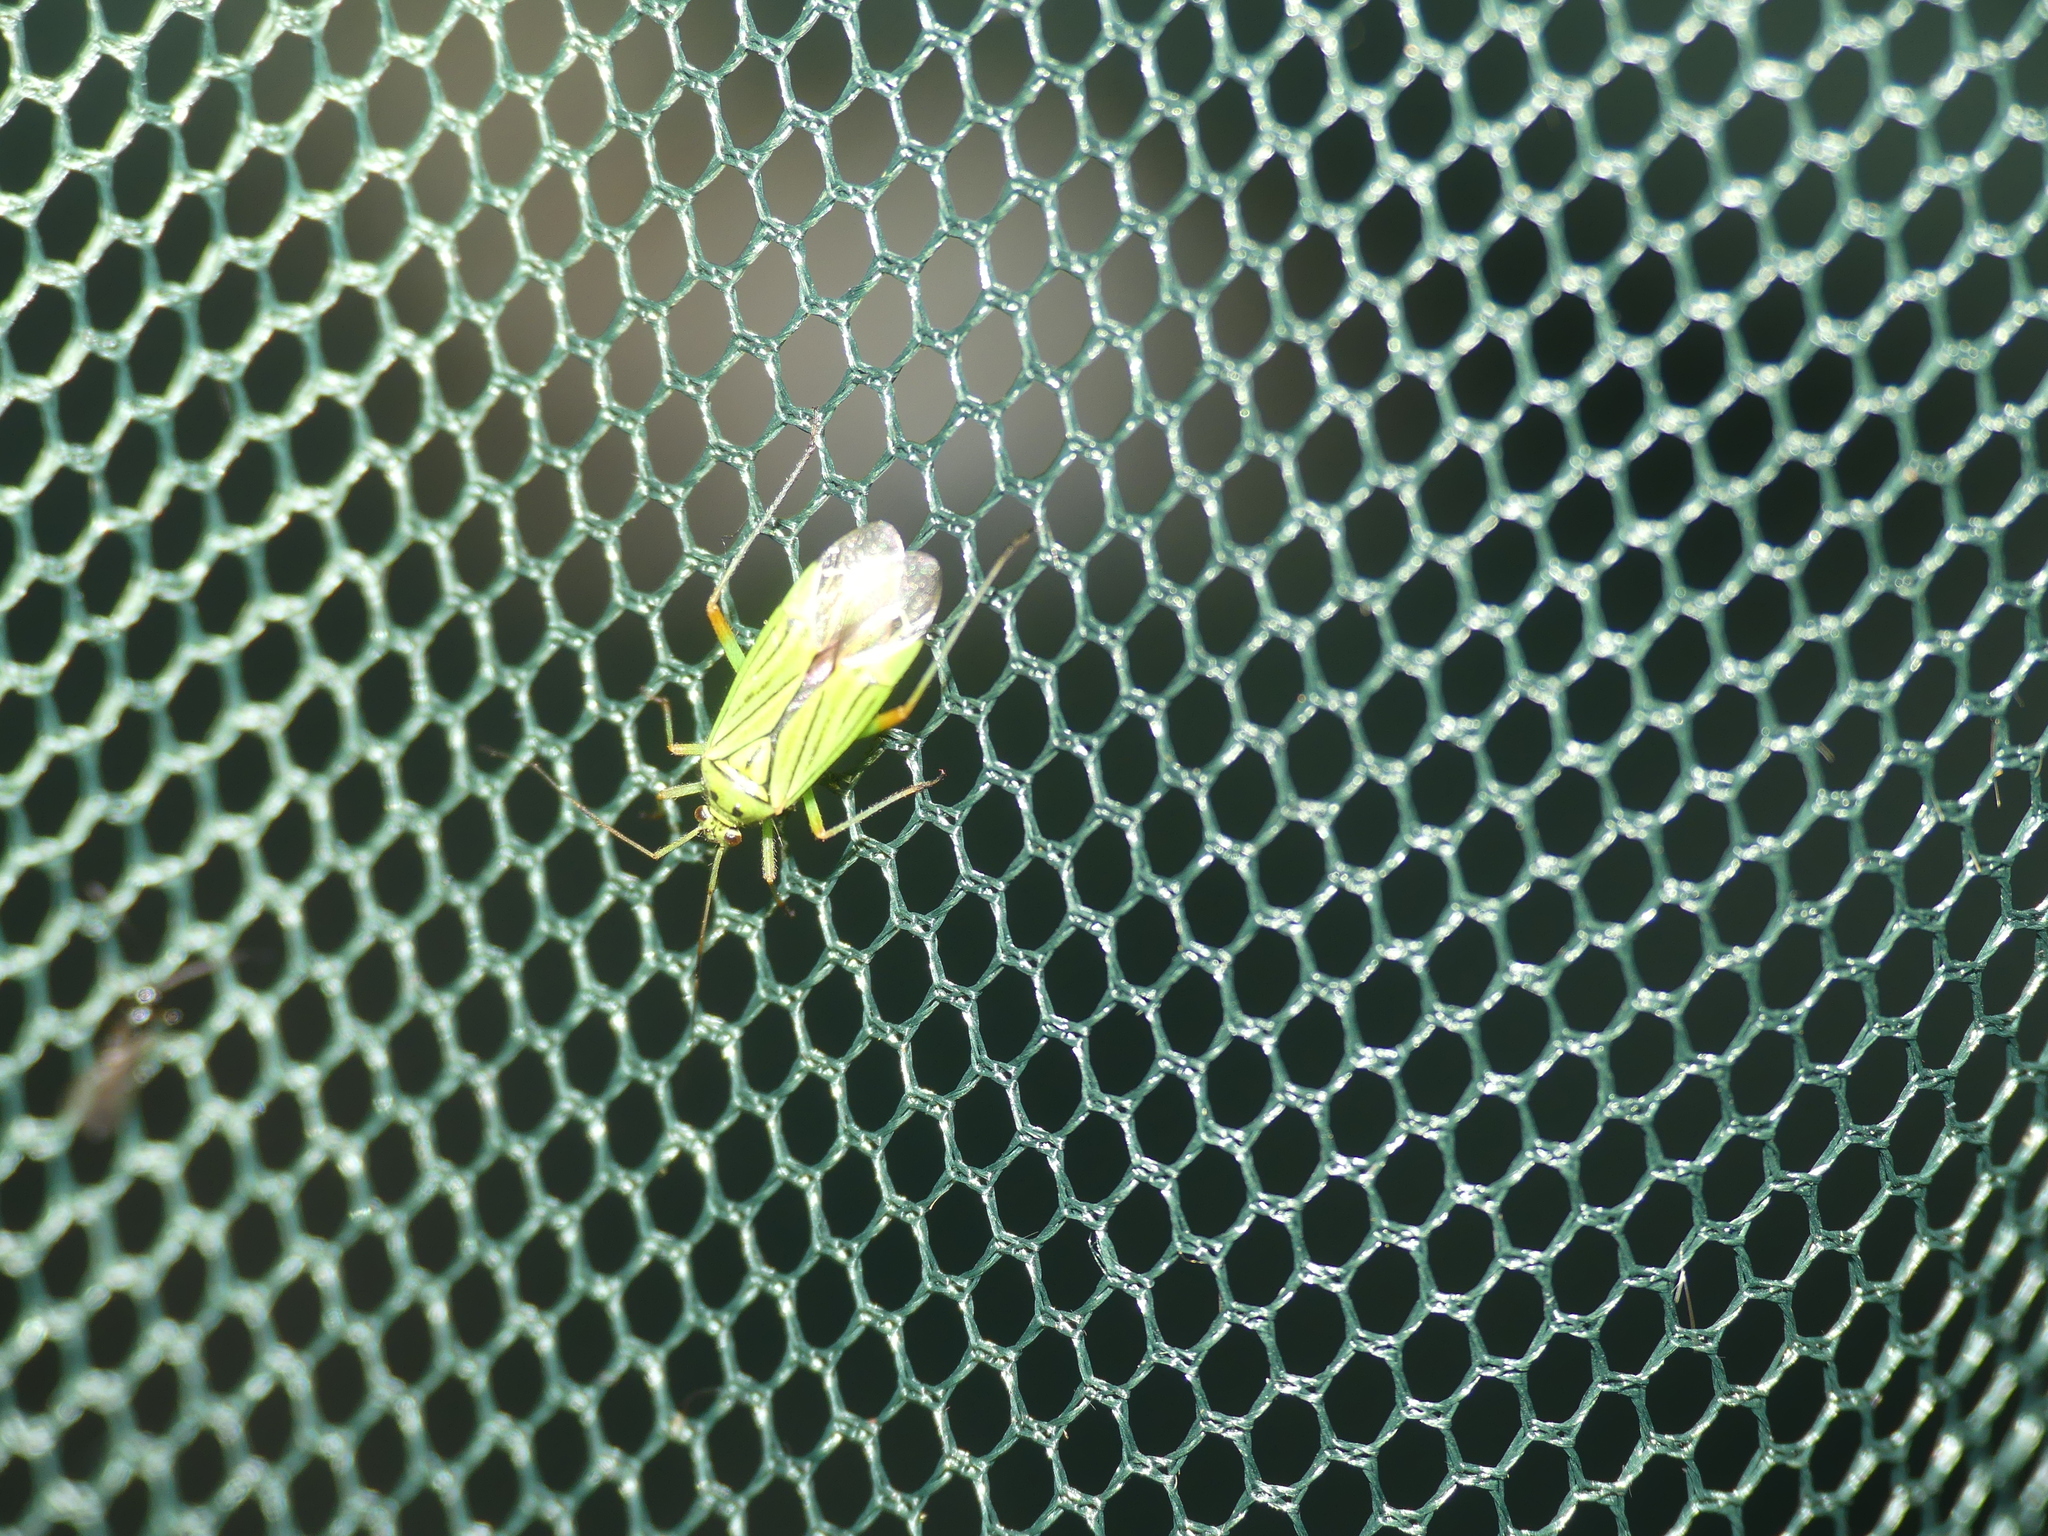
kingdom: Animalia
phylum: Arthropoda
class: Insecta
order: Hemiptera
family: Miridae
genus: Mermitelocerus
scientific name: Mermitelocerus schmidtii
